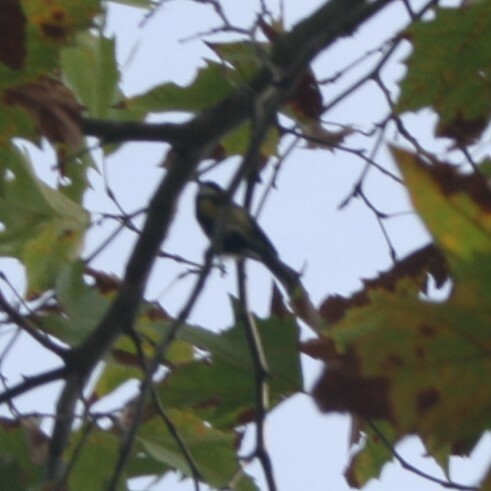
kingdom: Animalia
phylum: Chordata
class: Aves
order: Passeriformes
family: Paridae
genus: Parus
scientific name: Parus major
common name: Great tit
